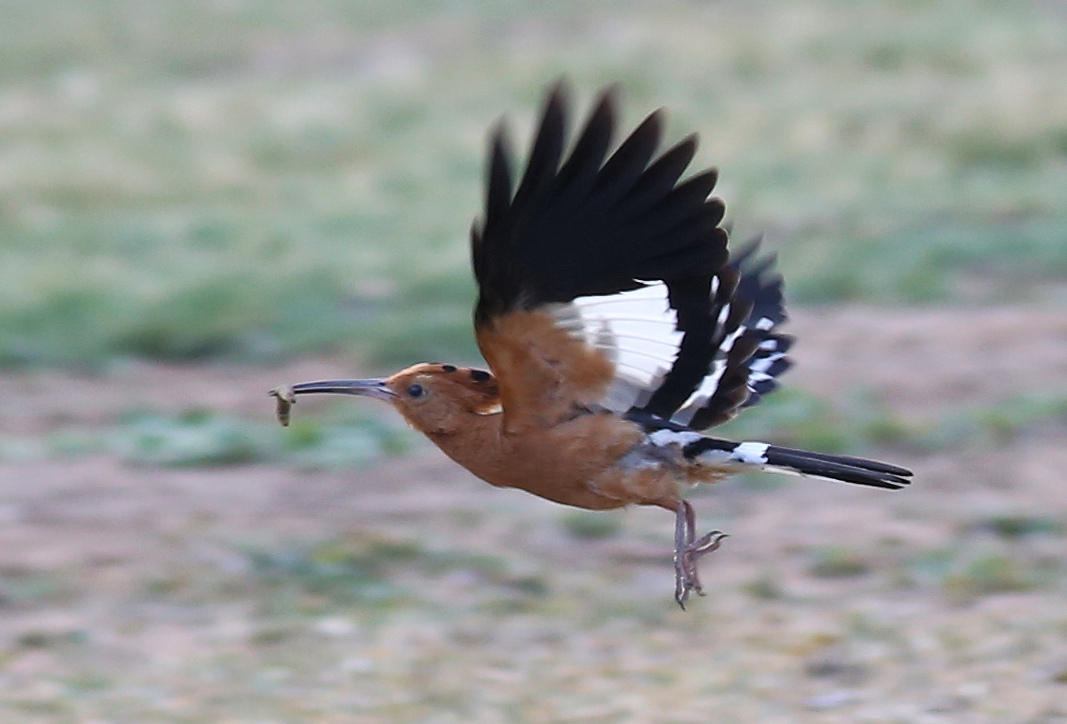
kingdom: Animalia
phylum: Chordata
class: Aves
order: Bucerotiformes
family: Upupidae
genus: Upupa
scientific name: Upupa africana
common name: African hoopoe
